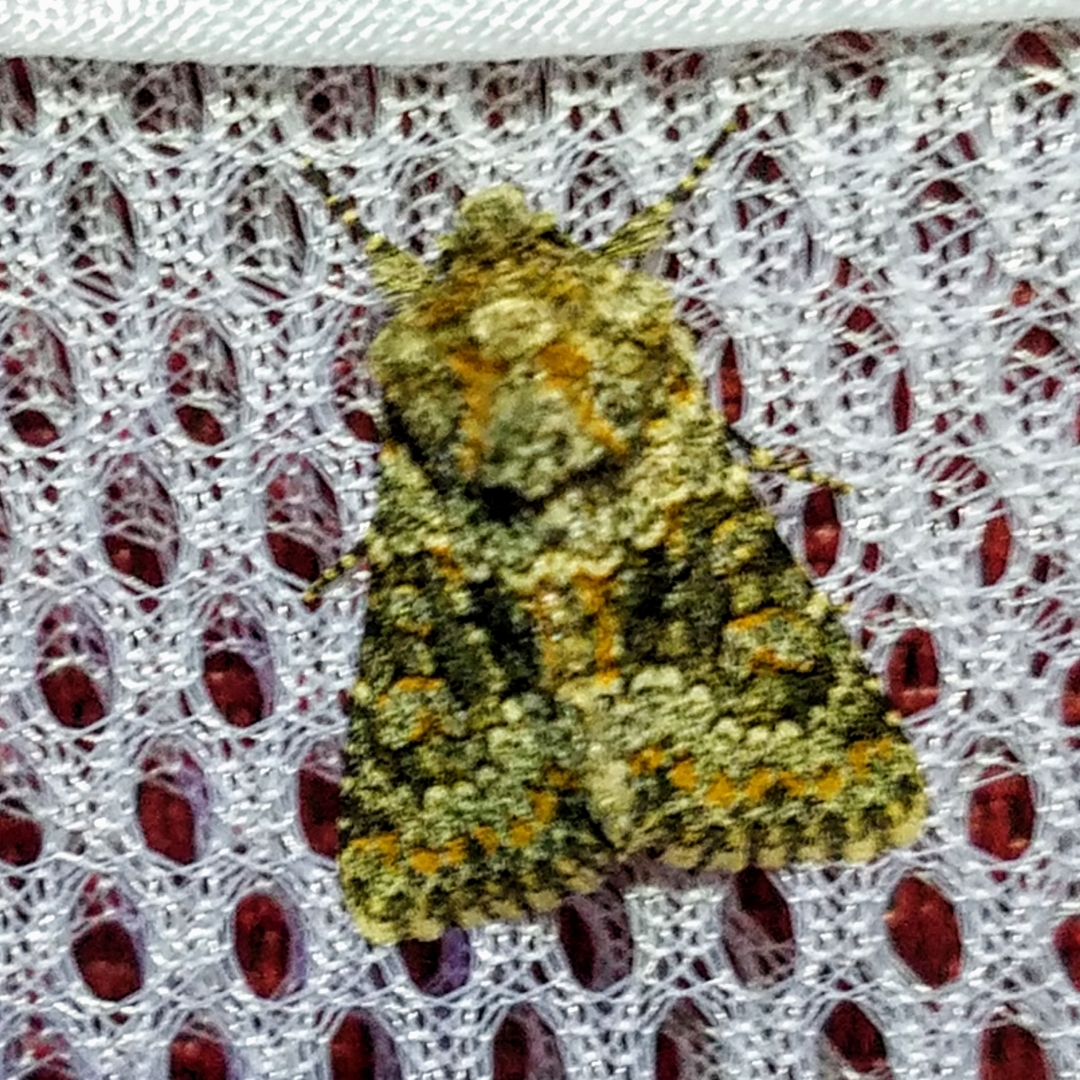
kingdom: Animalia
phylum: Arthropoda
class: Insecta
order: Lepidoptera
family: Noctuidae
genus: Hecatera
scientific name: Hecatera dysodea
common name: Small ranunculus
